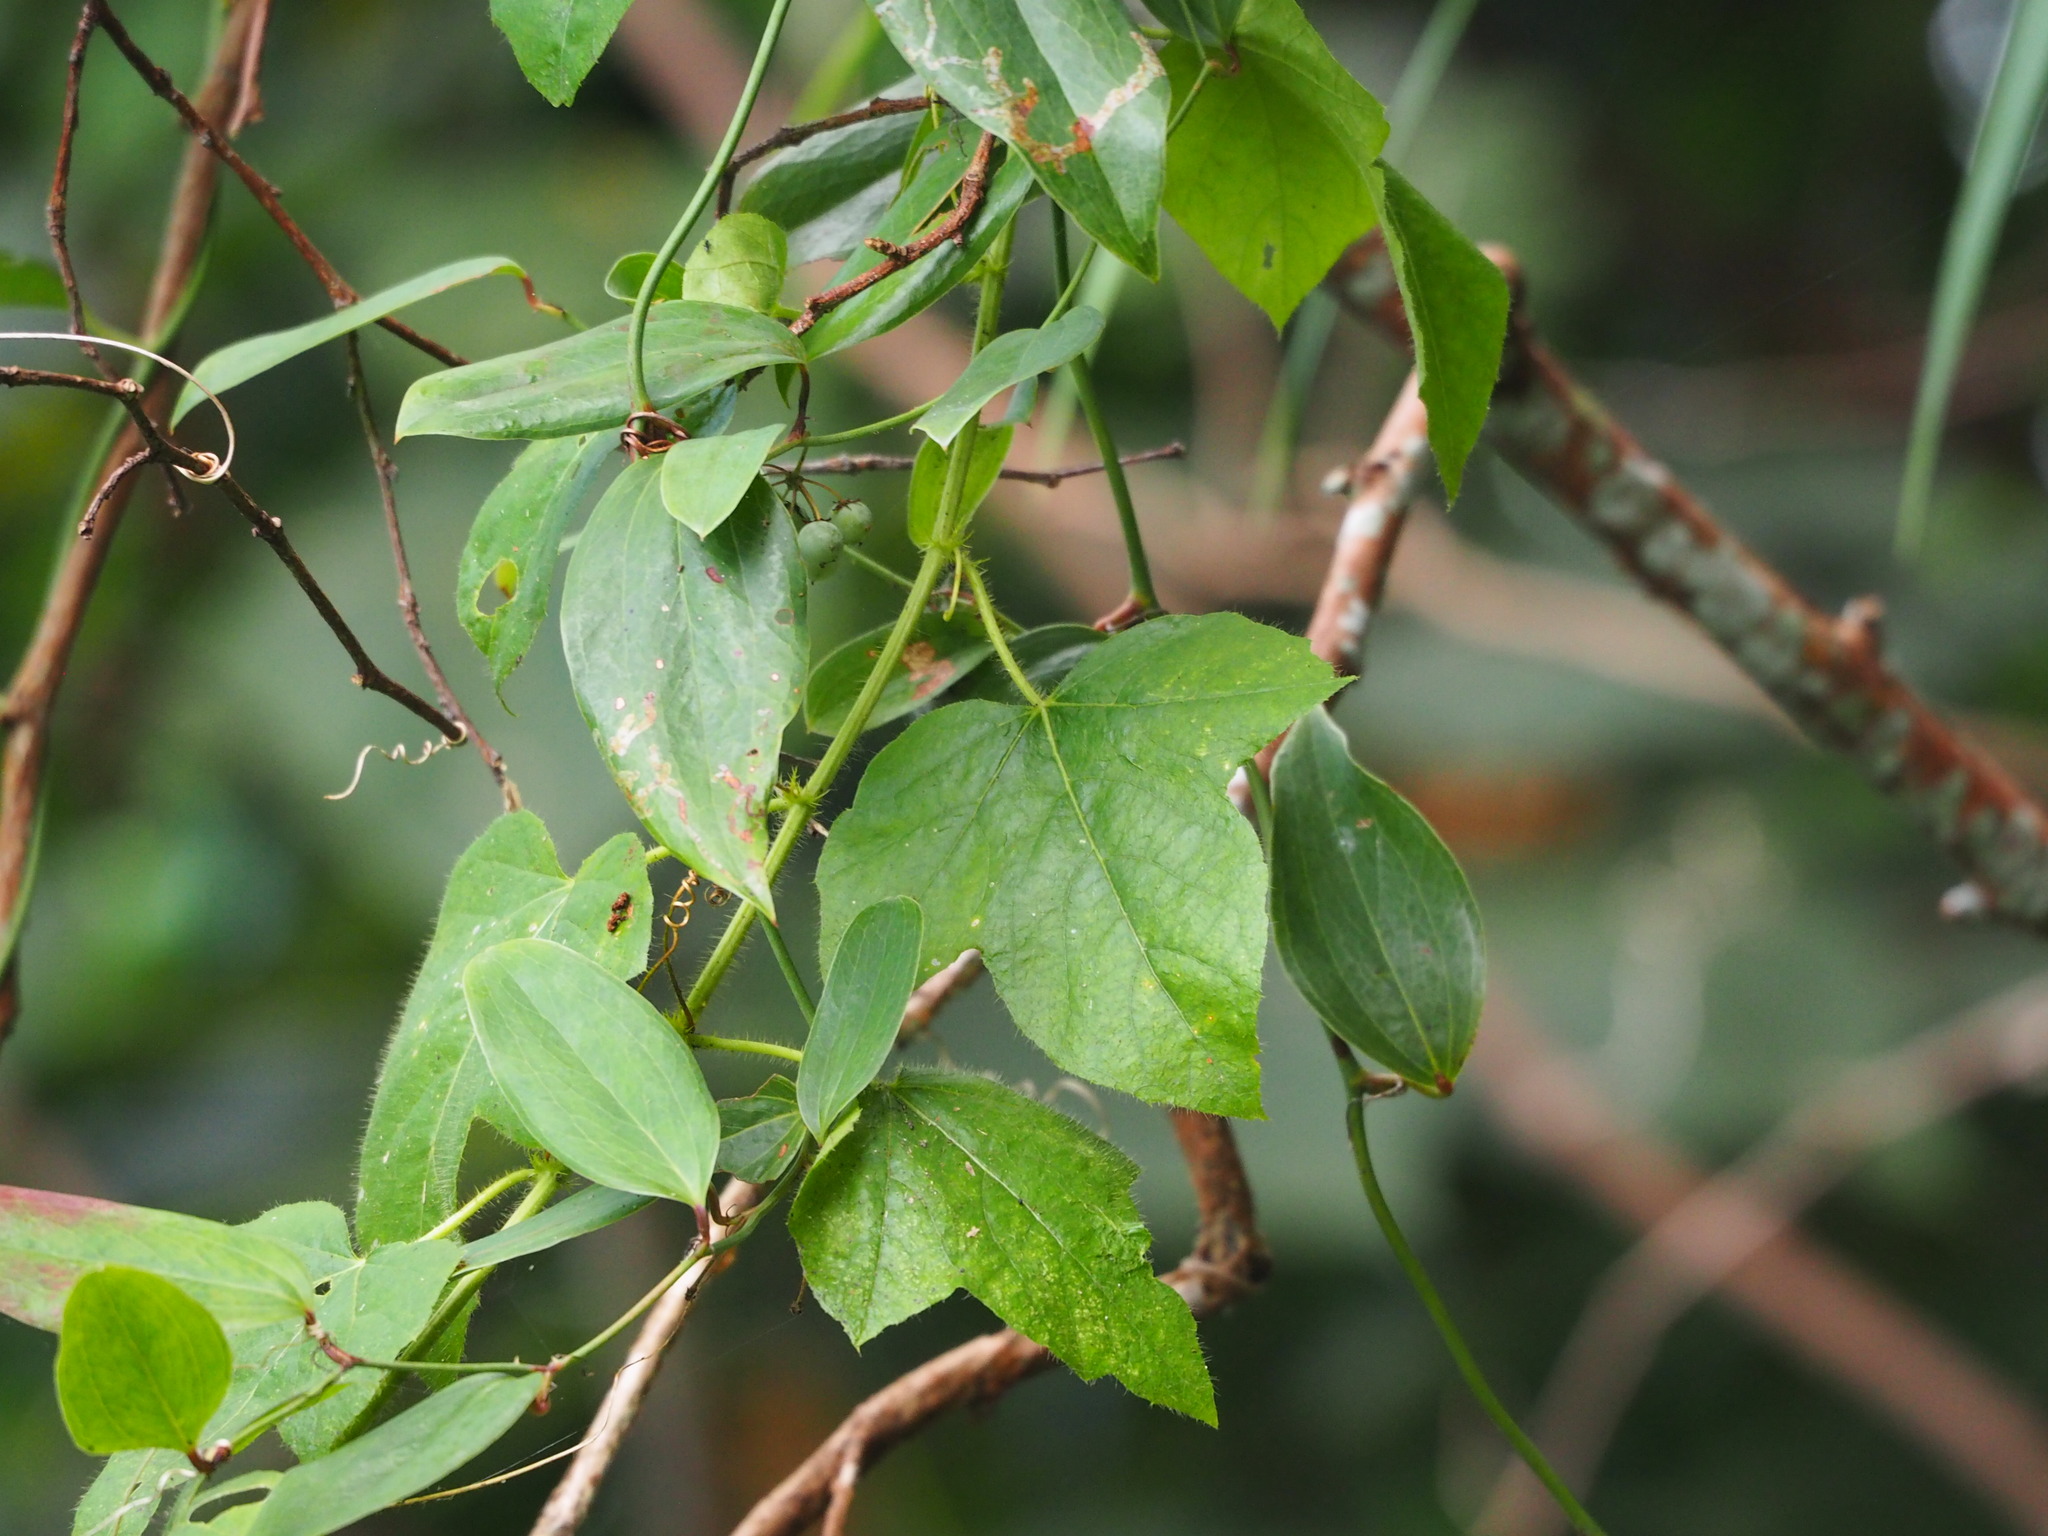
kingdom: Plantae
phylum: Tracheophyta
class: Magnoliopsida
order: Malpighiales
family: Passifloraceae
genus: Passiflora
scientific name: Passiflora vesicaria
